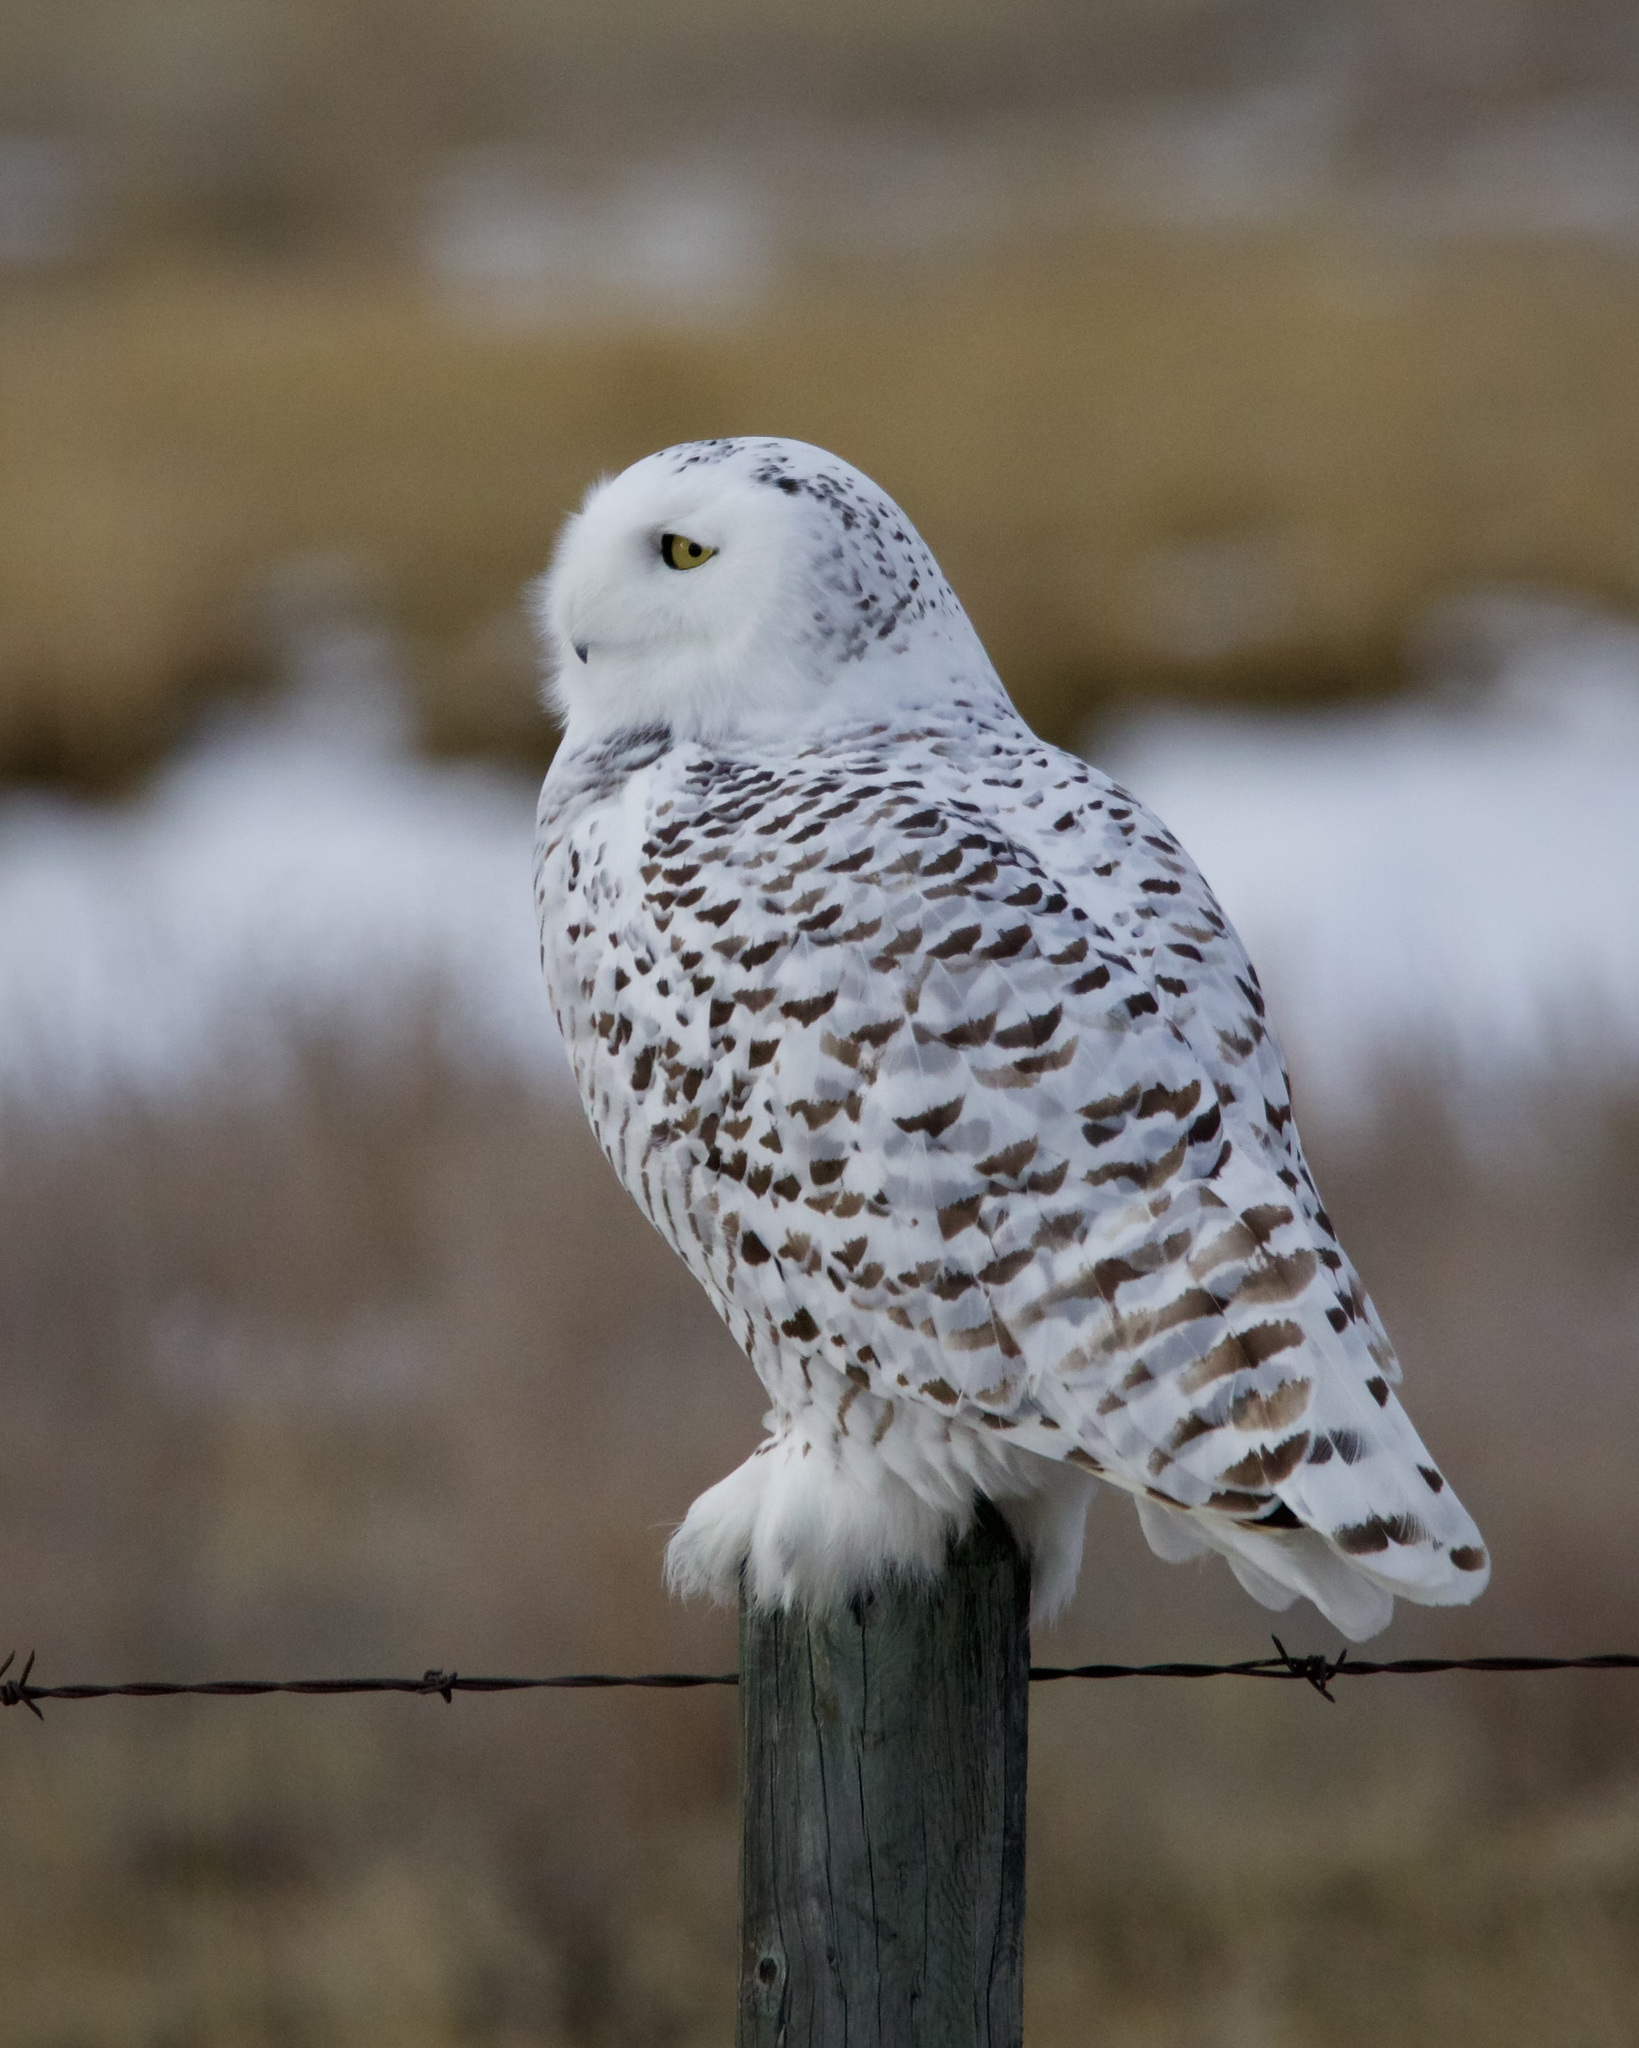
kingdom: Animalia
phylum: Chordata
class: Aves
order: Strigiformes
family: Strigidae
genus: Bubo
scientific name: Bubo scandiacus
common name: Snowy owl
